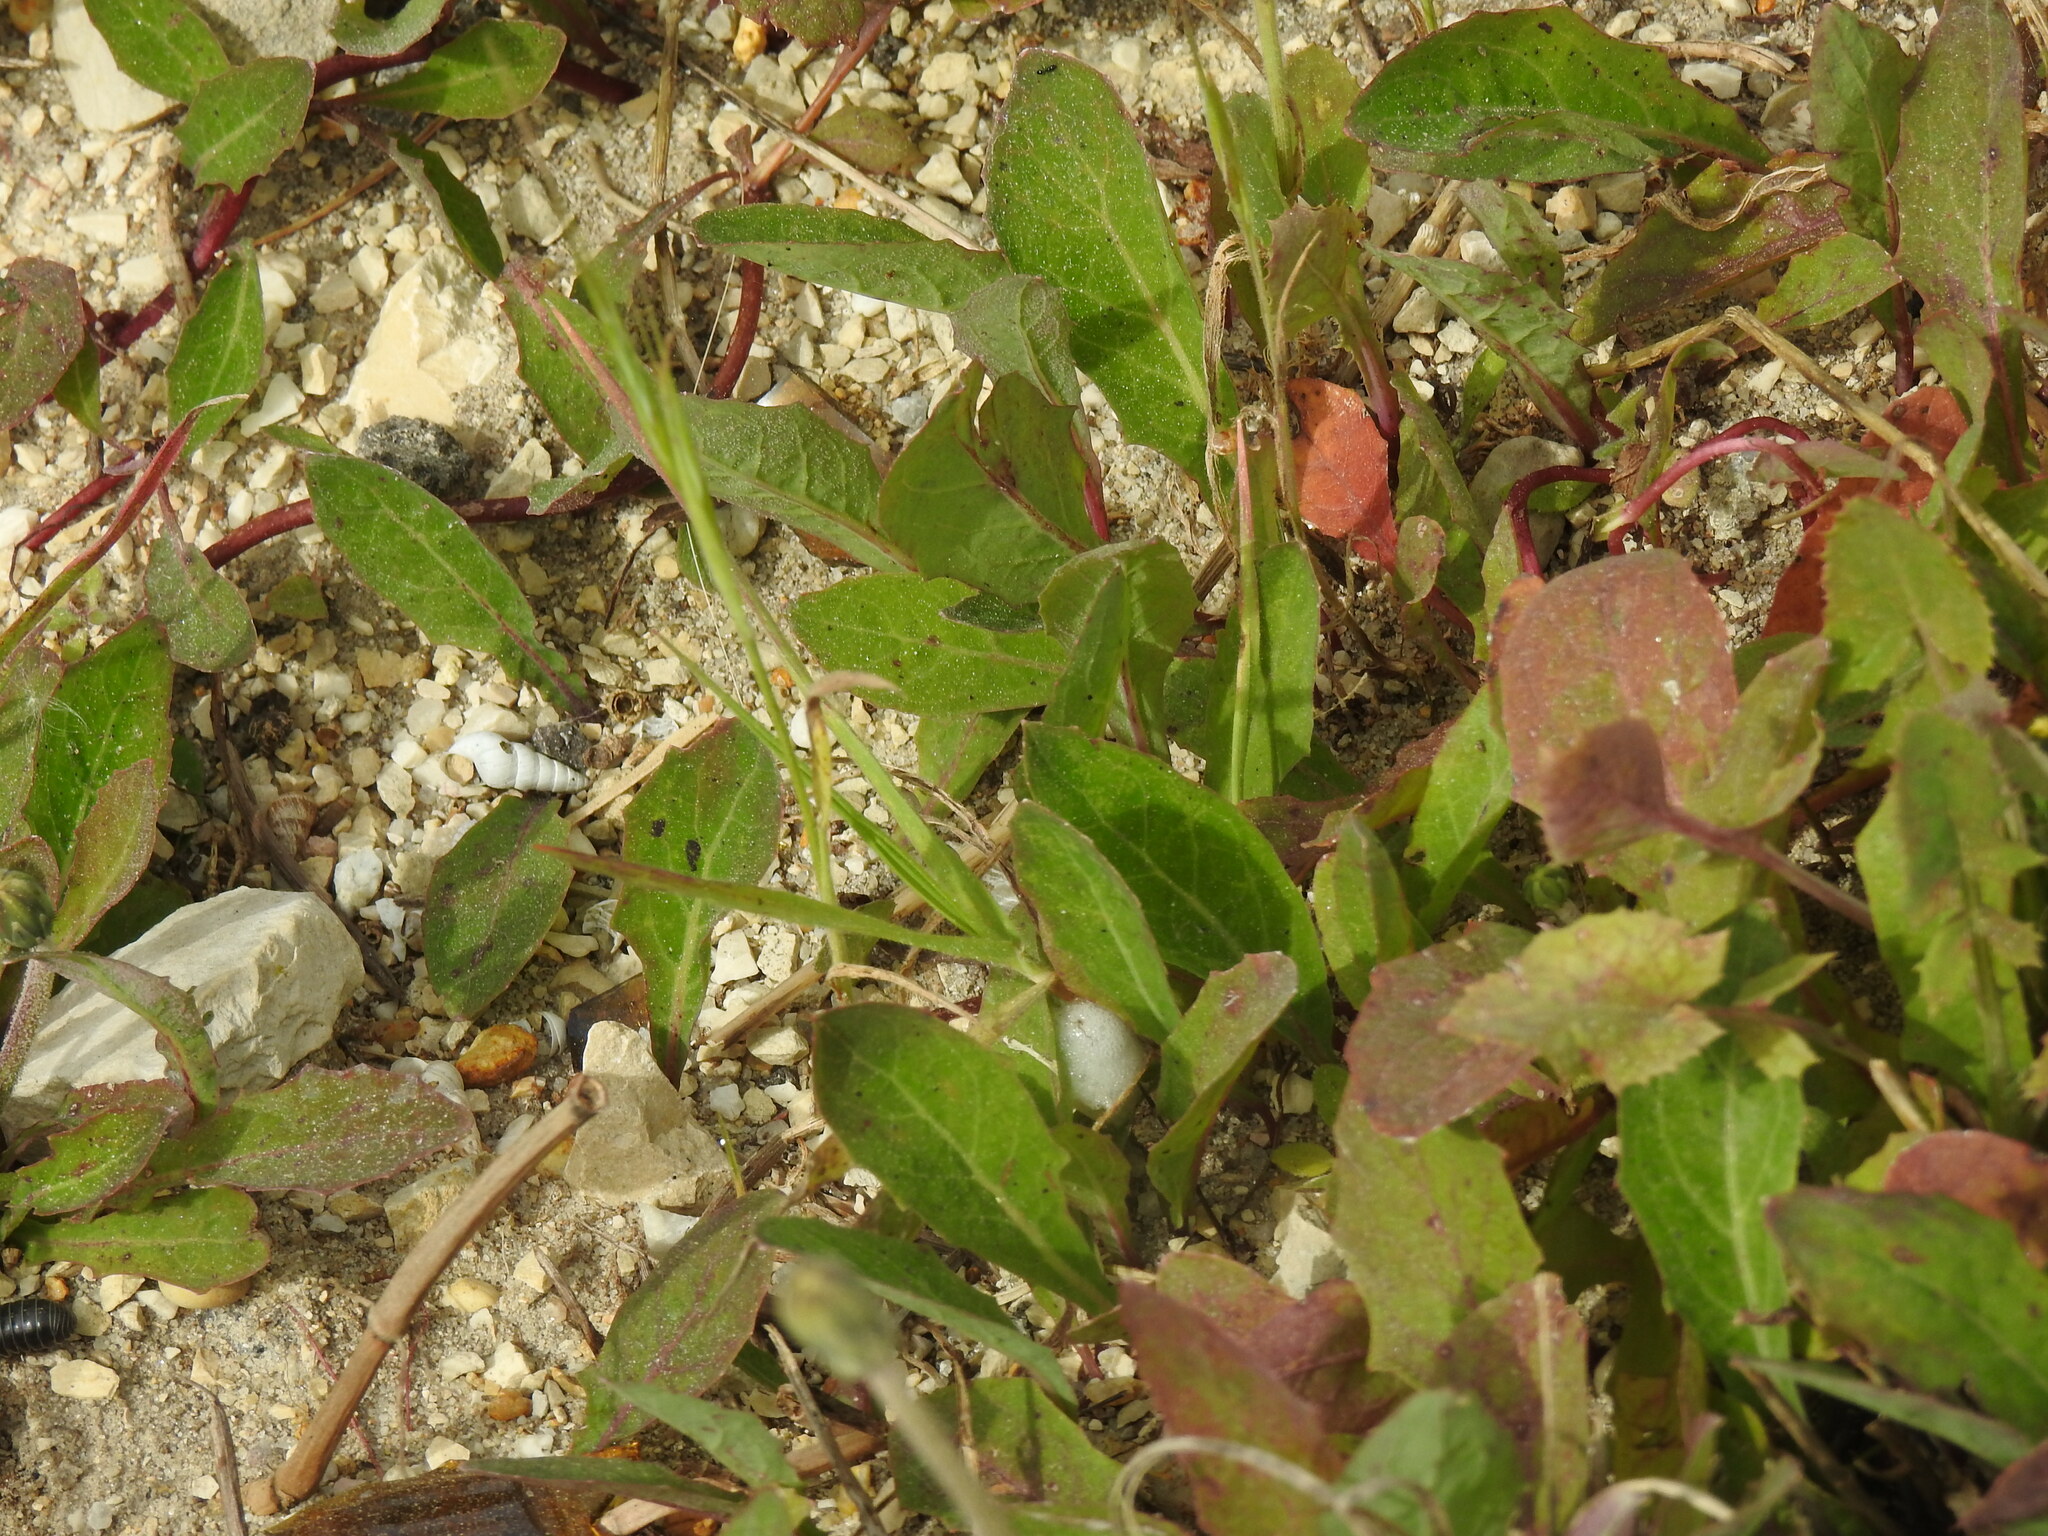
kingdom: Plantae
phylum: Tracheophyta
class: Magnoliopsida
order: Asterales
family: Asteraceae
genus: Aetheorhiza
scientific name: Aetheorhiza bulbosa
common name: Tuberous hawk's-beard
